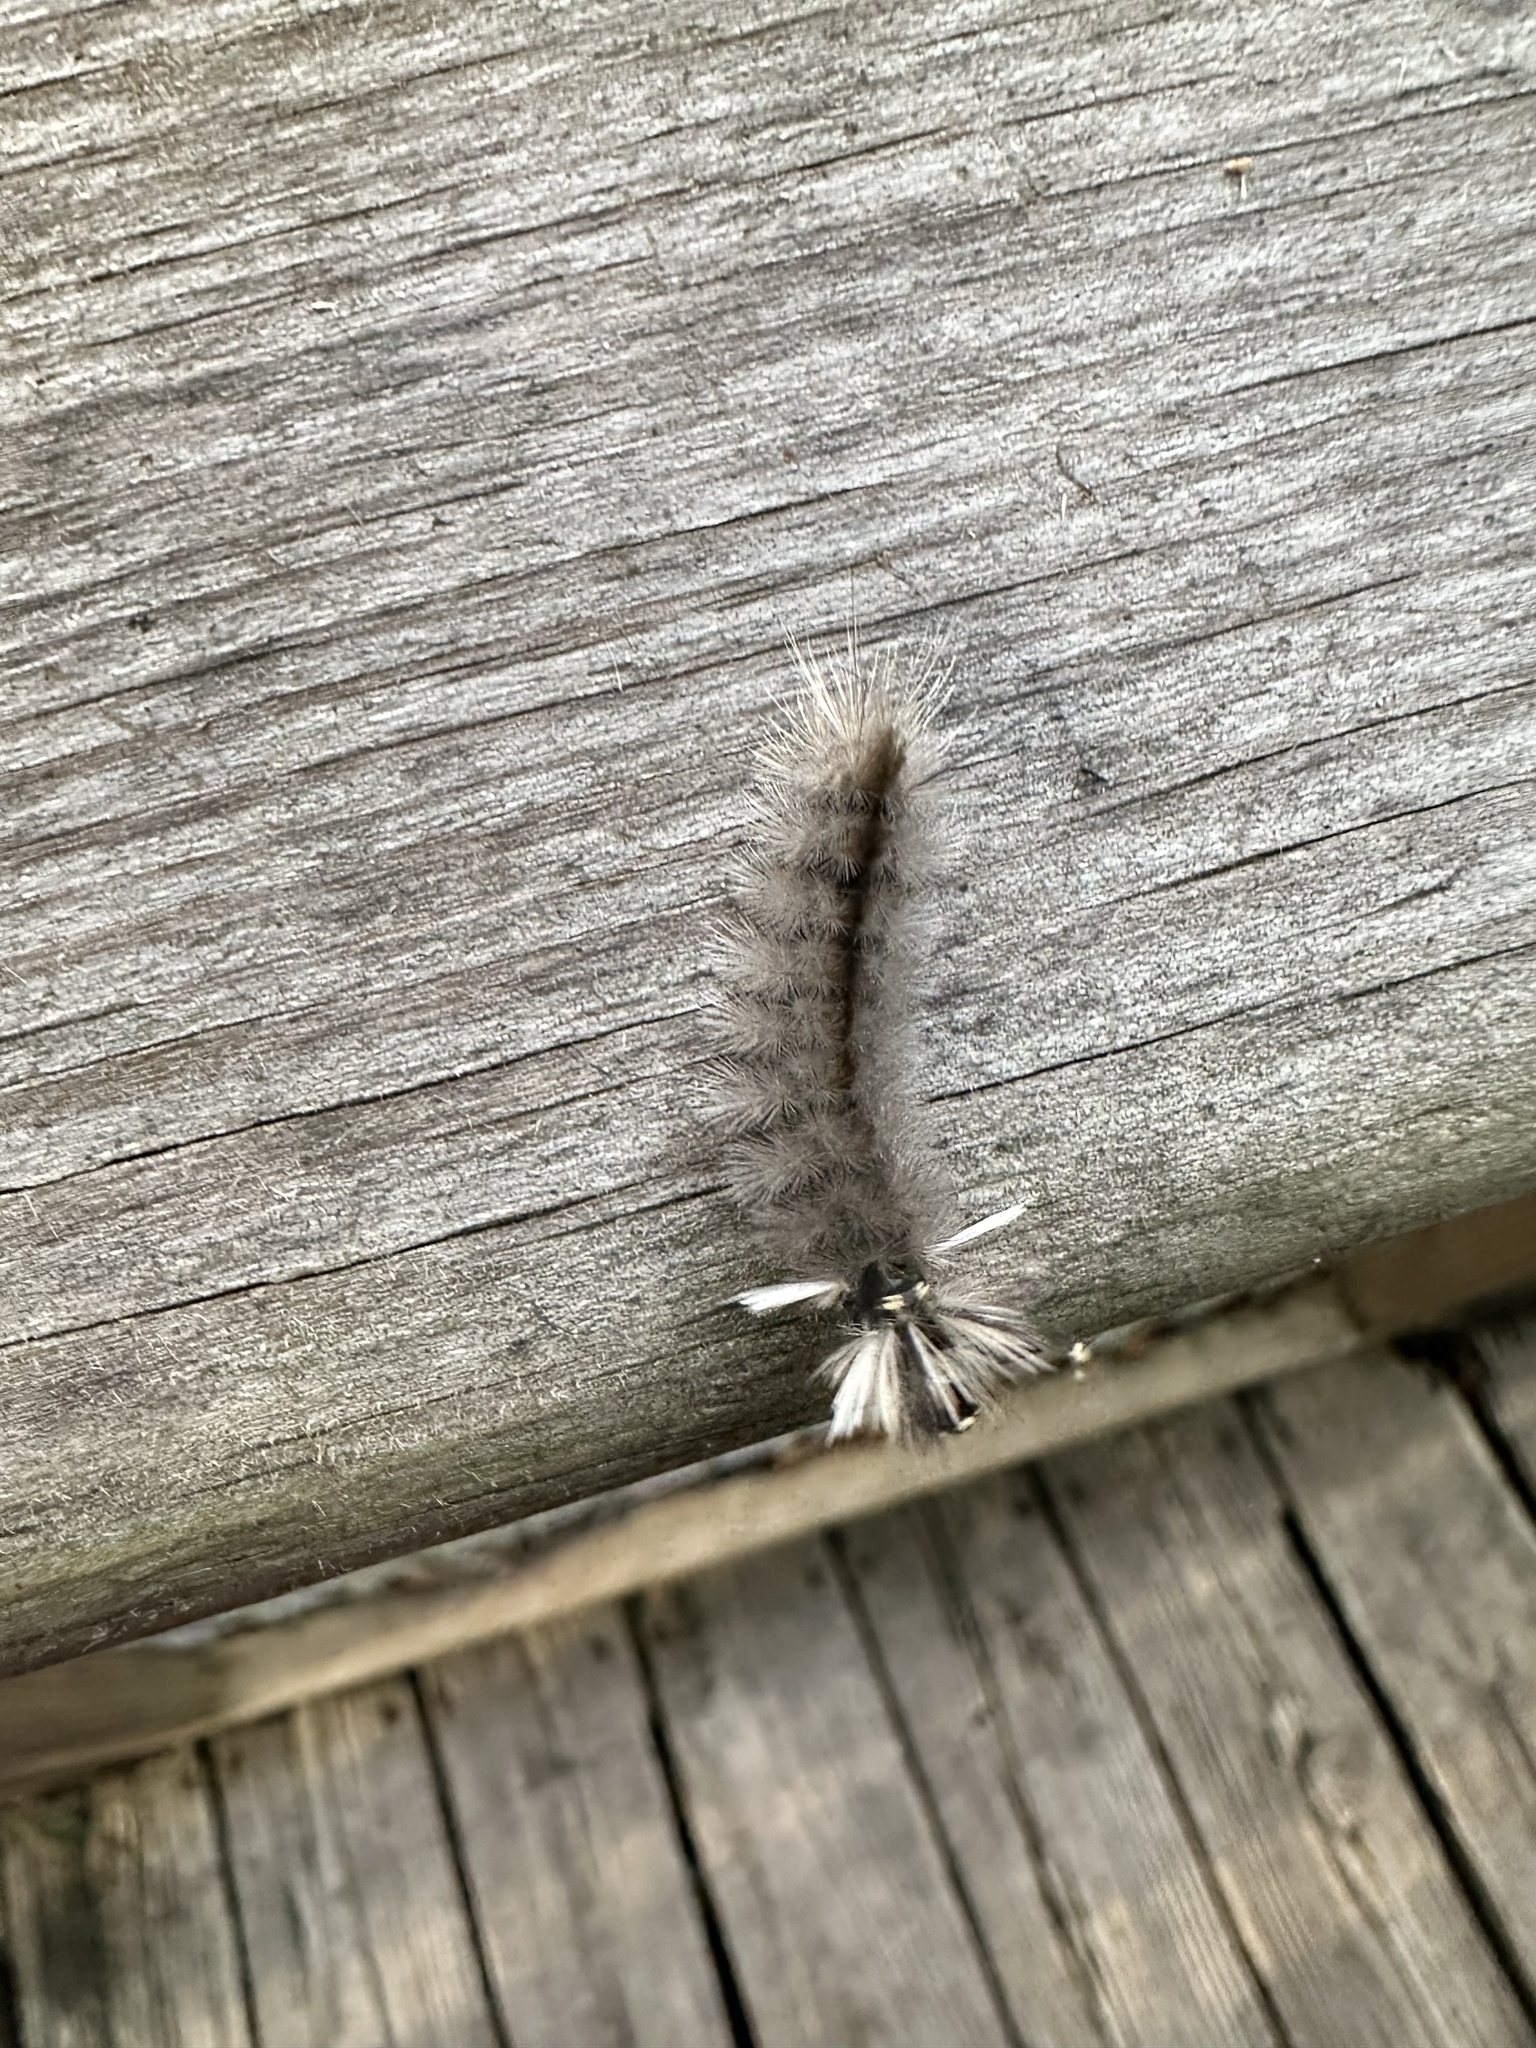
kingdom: Animalia
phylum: Arthropoda
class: Insecta
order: Lepidoptera
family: Erebidae
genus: Halysidota
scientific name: Halysidota tessellaris
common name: Banded tussock moth
